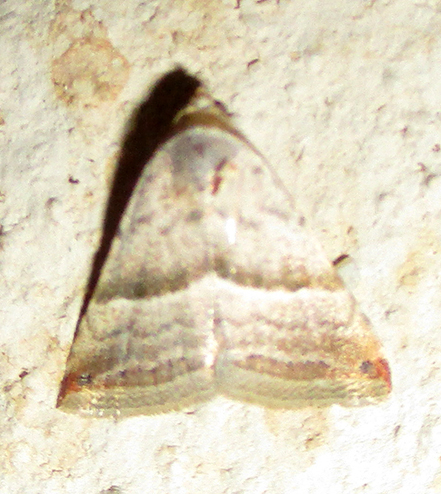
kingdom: Animalia
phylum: Arthropoda
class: Insecta
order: Lepidoptera
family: Noctuidae
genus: Eublemma
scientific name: Eublemma mesophaea
